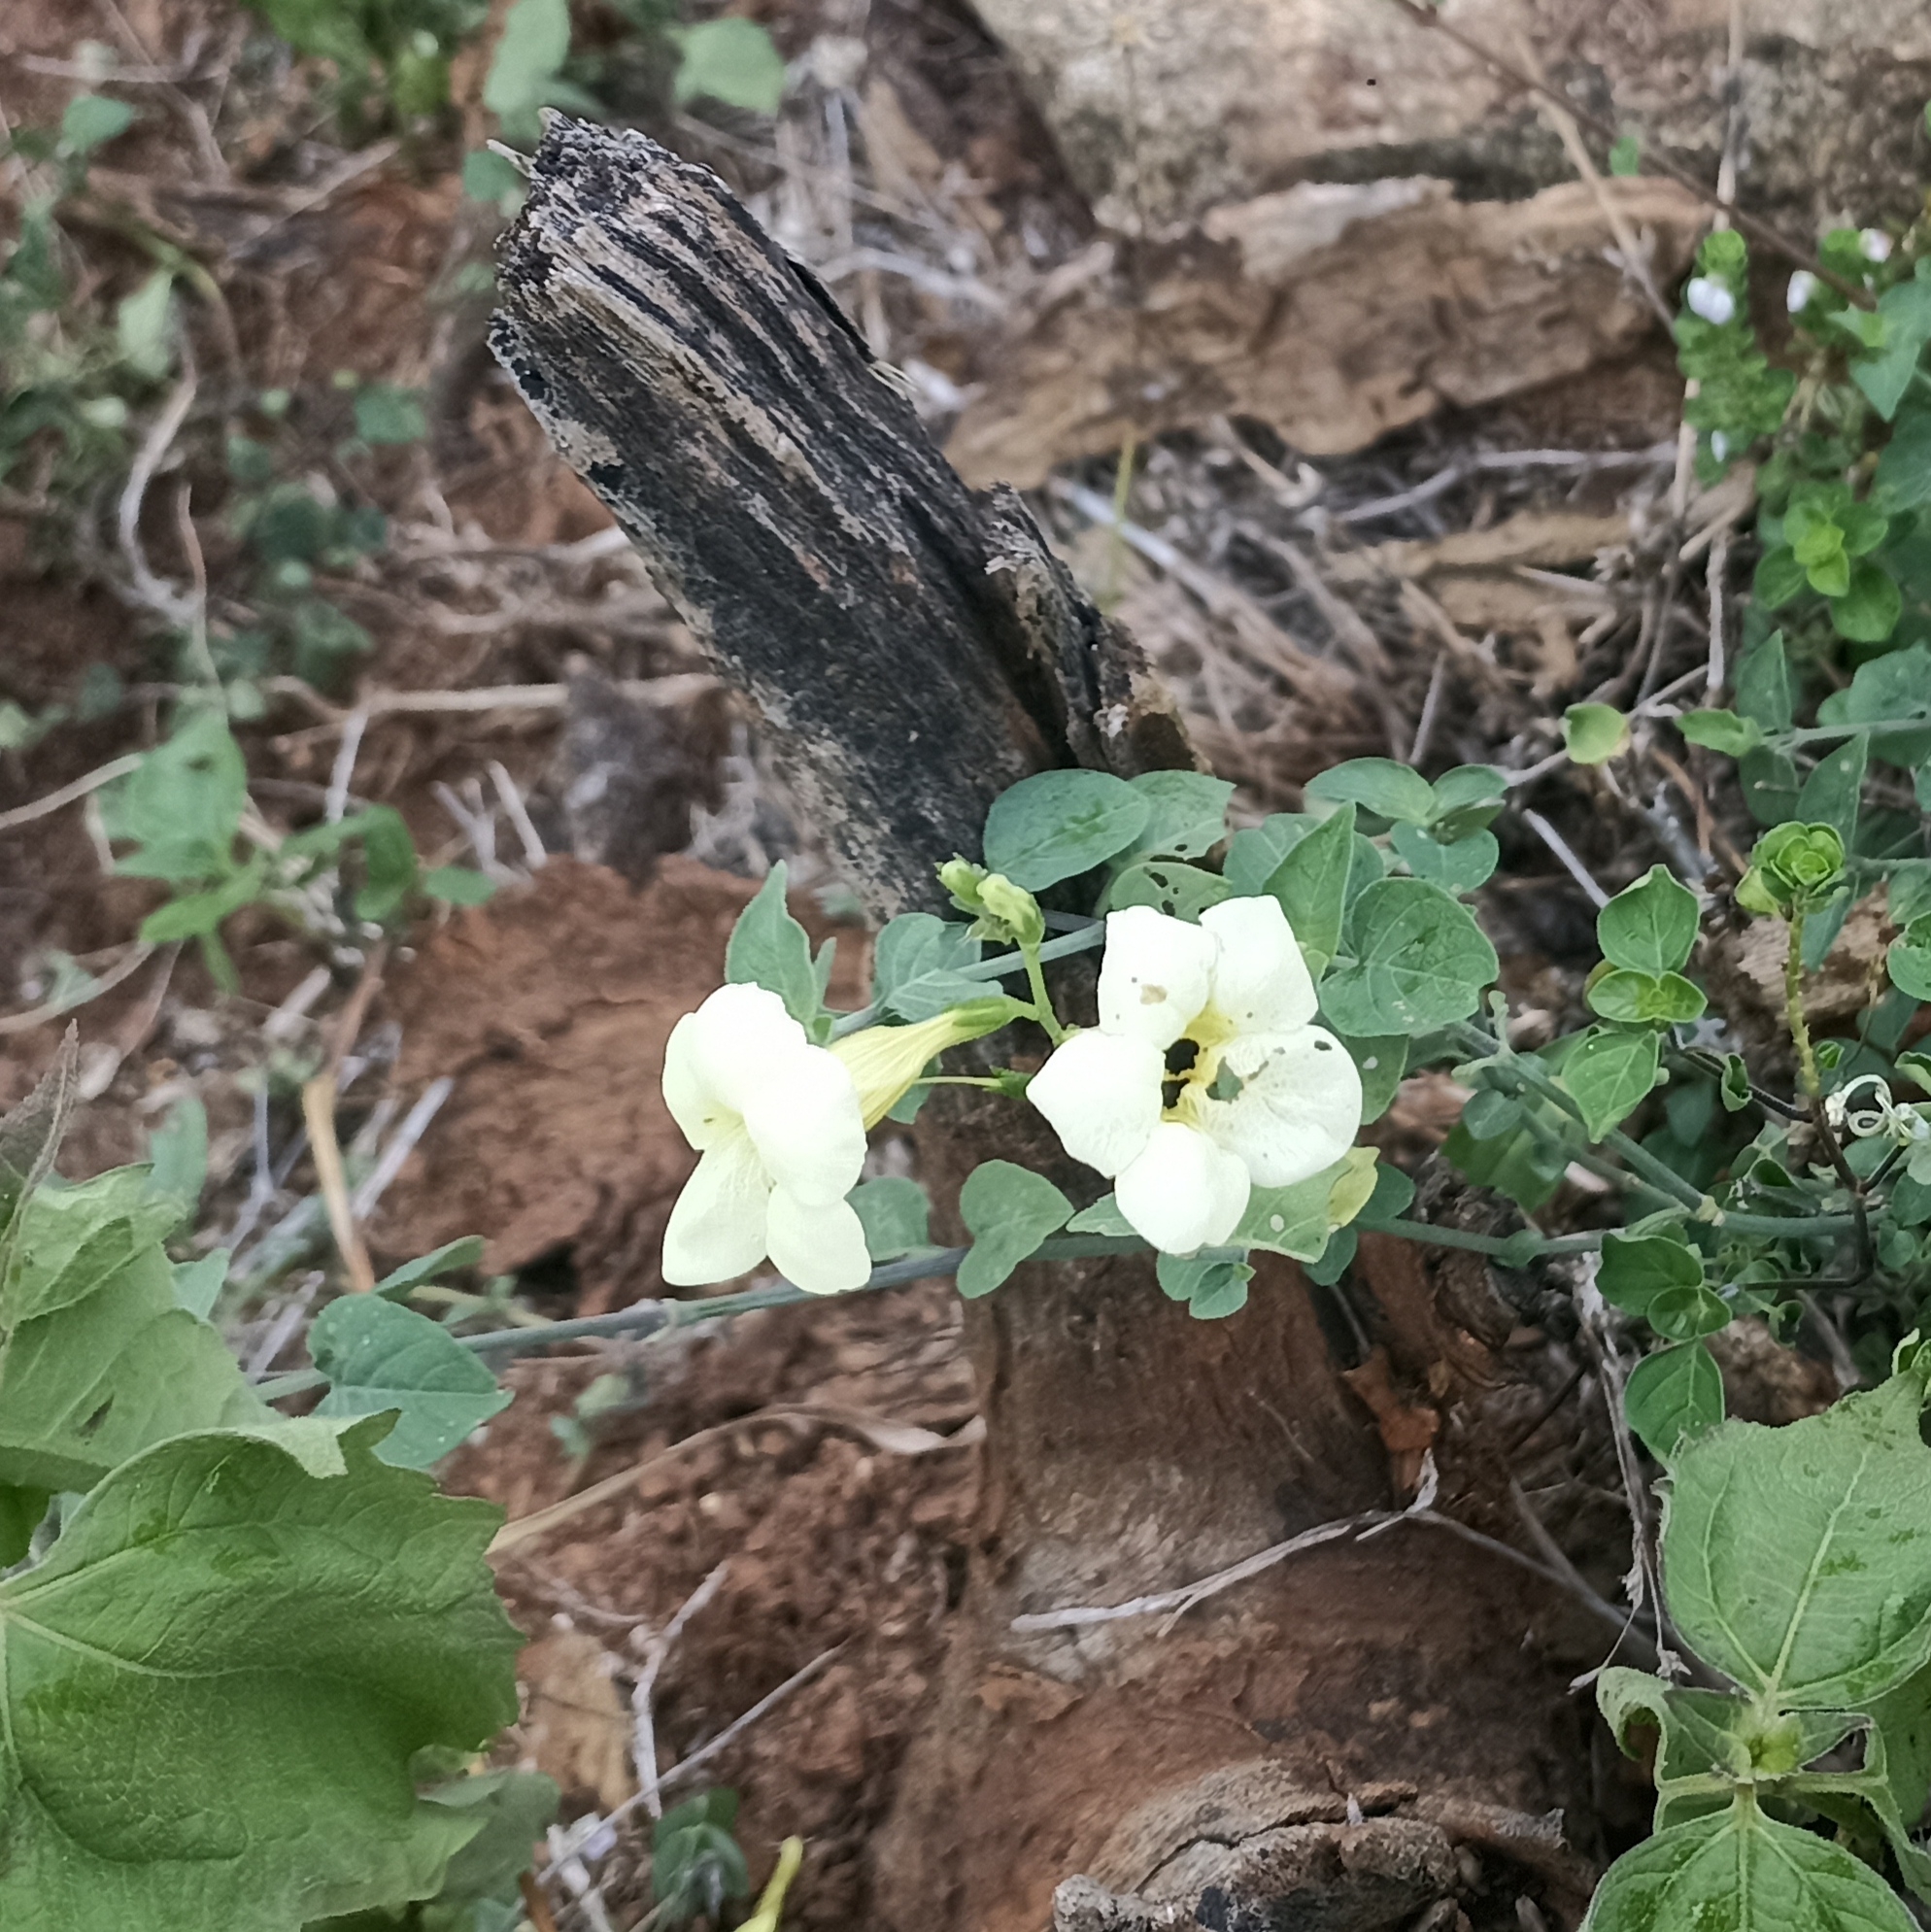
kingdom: Plantae
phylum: Tracheophyta
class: Magnoliopsida
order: Lamiales
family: Acanthaceae
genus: Asystasia
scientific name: Asystasia gangetica
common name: Chinese violet
